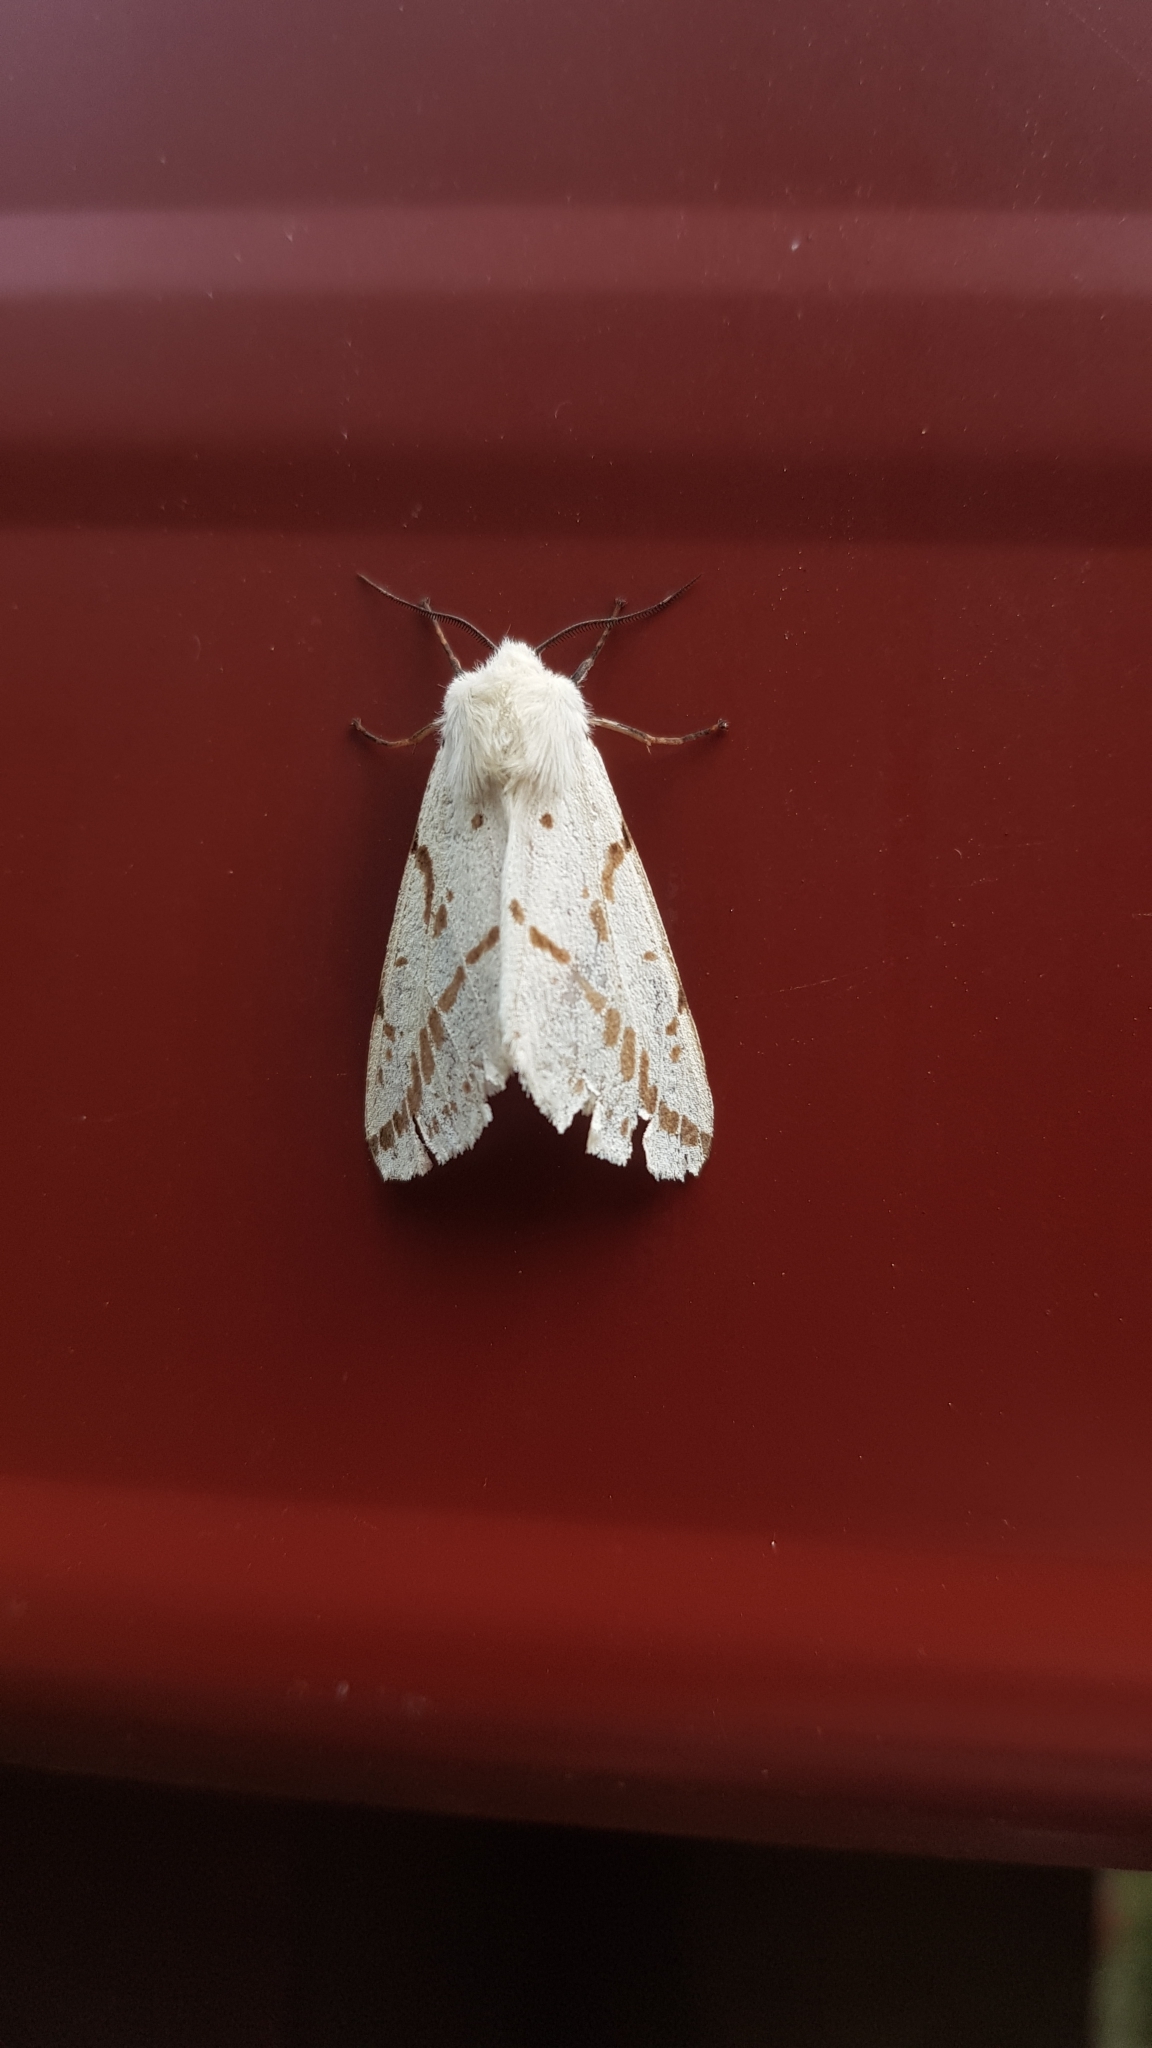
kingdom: Animalia
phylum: Arthropoda
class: Insecta
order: Lepidoptera
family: Erebidae
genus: Ardices
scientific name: Ardices canescens
